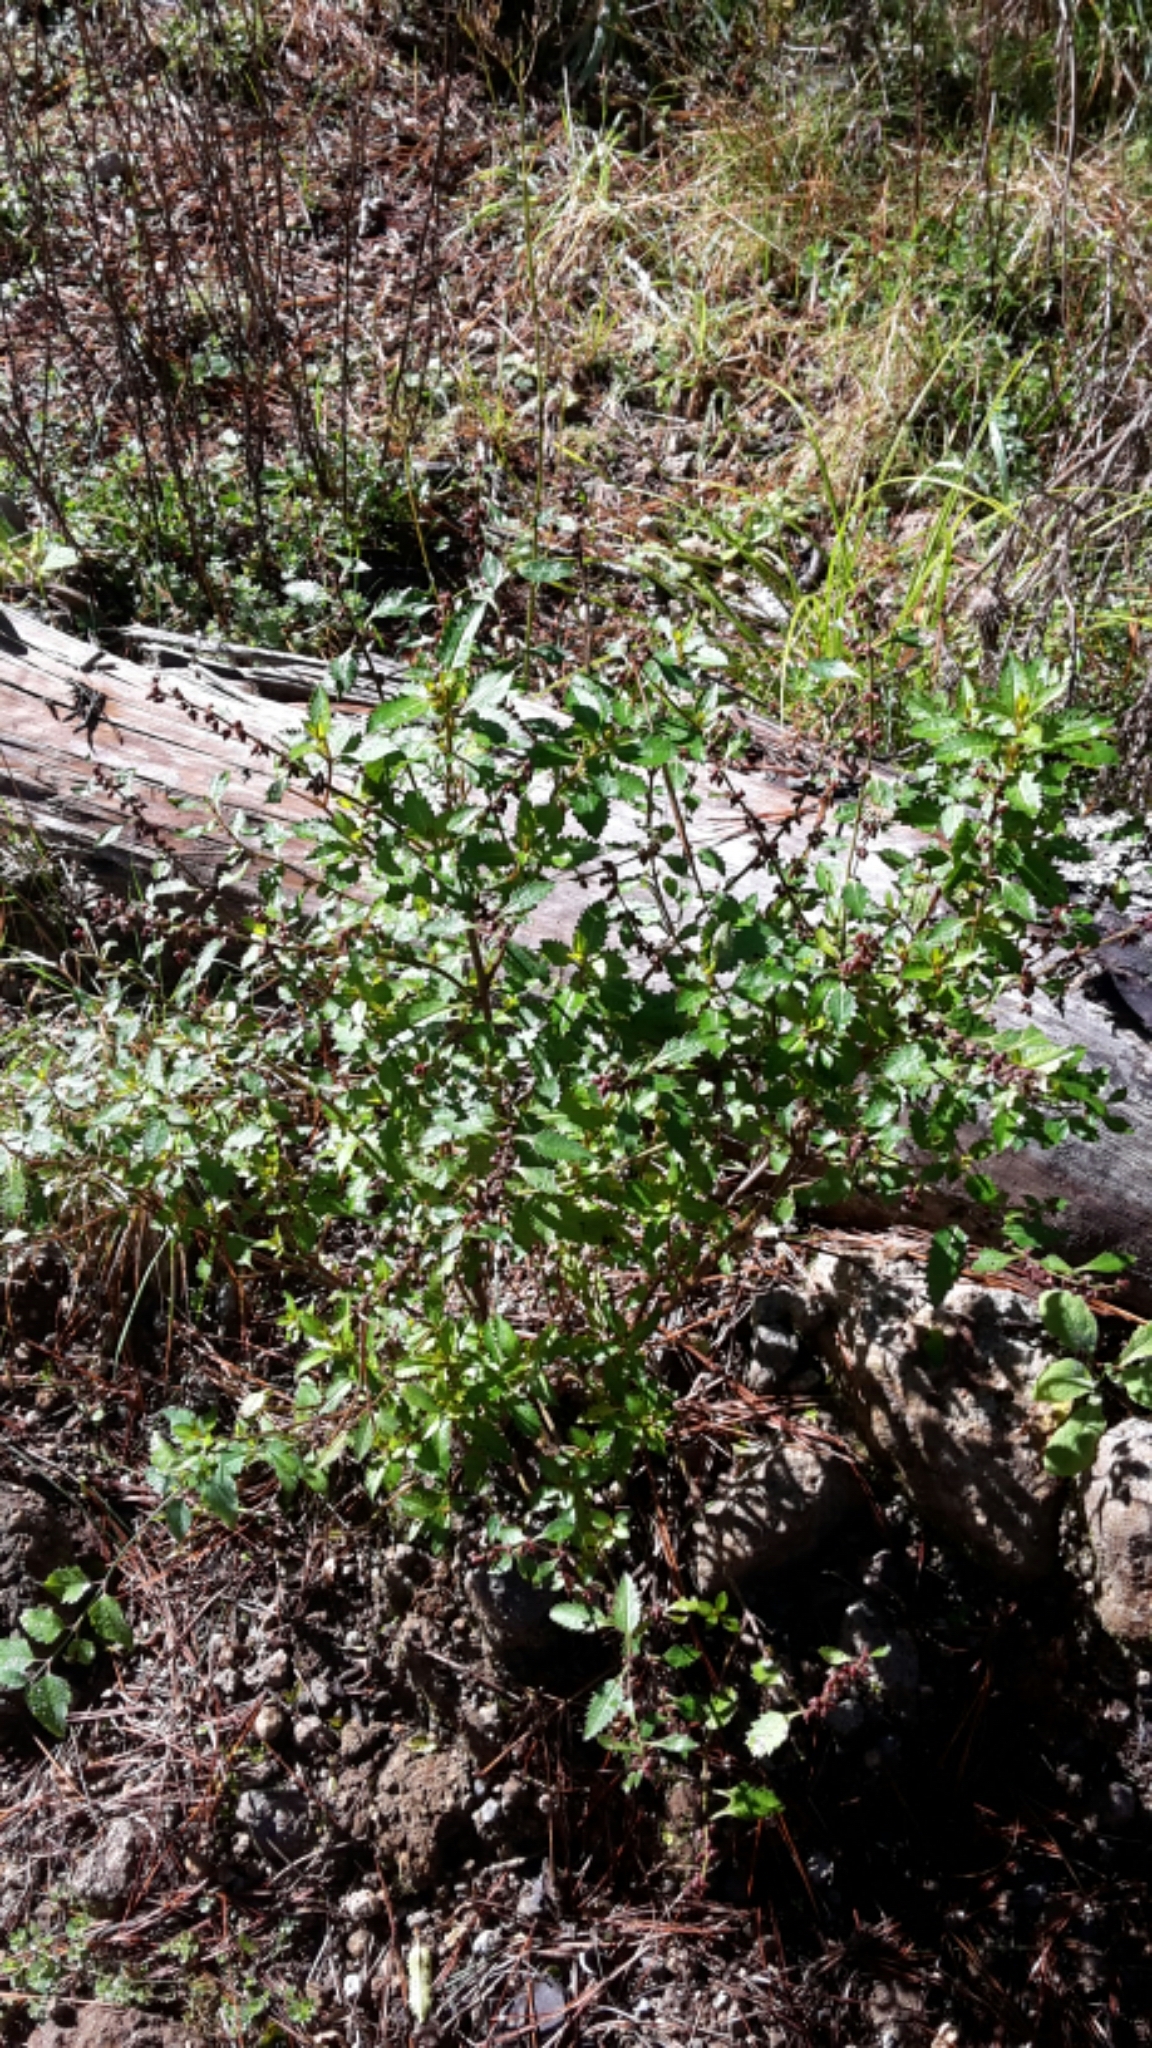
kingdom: Plantae
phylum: Tracheophyta
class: Magnoliopsida
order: Saxifragales
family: Haloragaceae
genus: Haloragis
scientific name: Haloragis erecta
